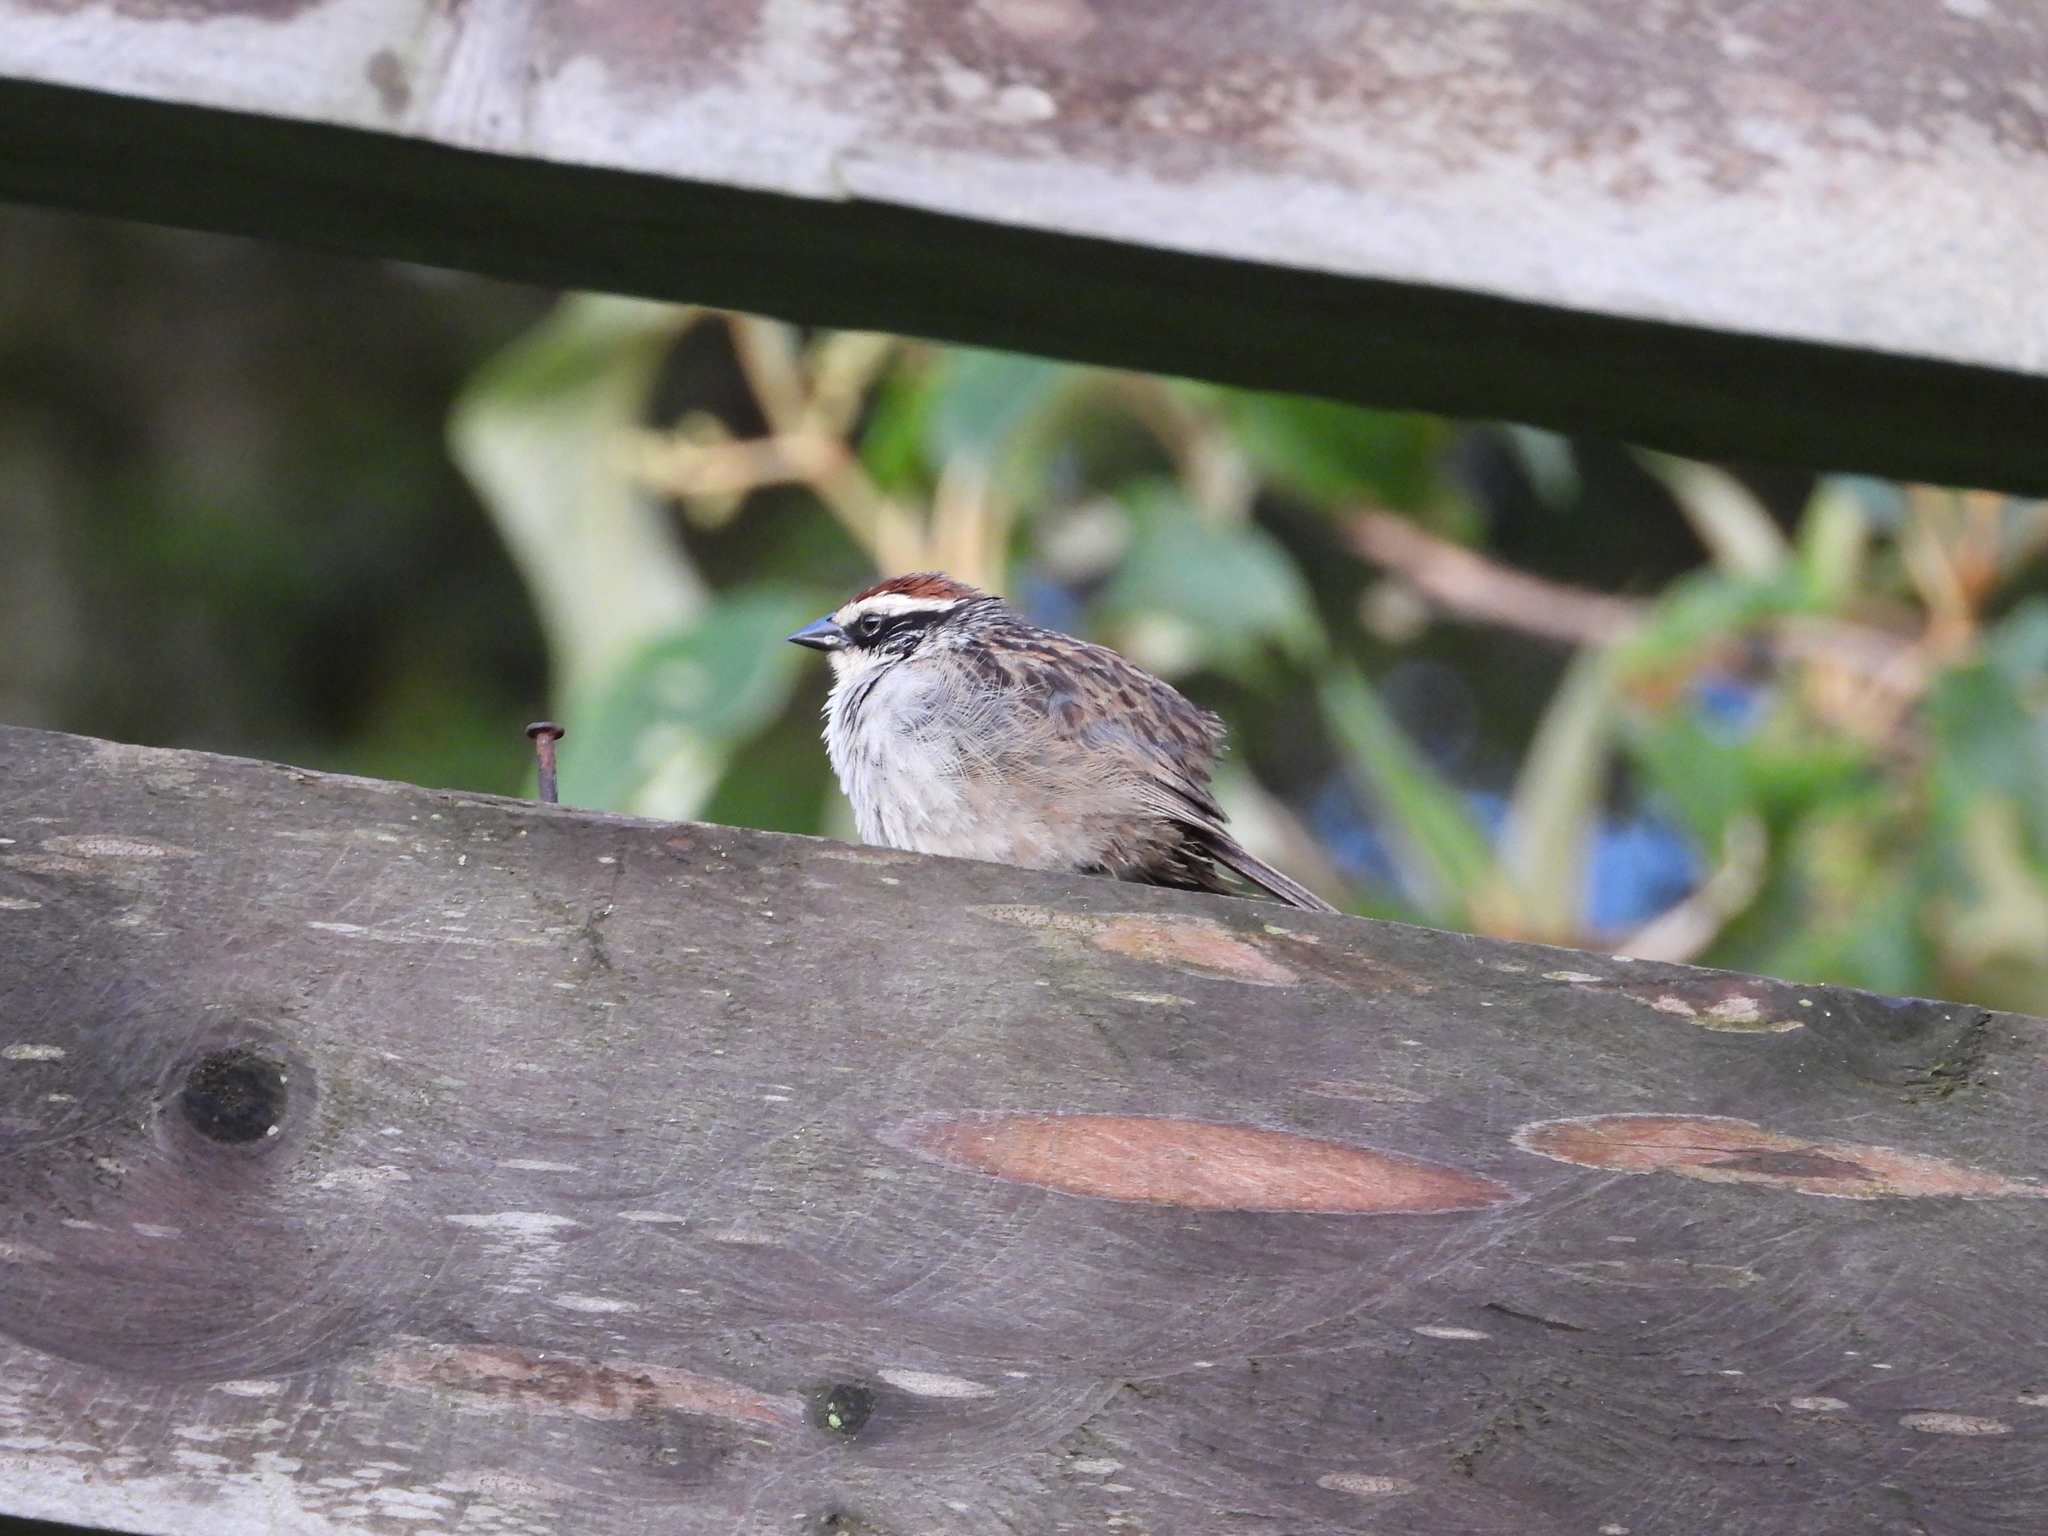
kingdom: Animalia
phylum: Chordata
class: Aves
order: Passeriformes
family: Passerellidae
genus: Oriturus
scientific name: Oriturus superciliosus
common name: Striped sparrow
